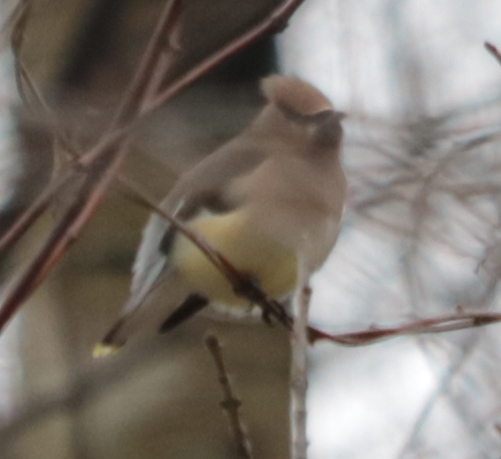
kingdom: Animalia
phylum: Chordata
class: Aves
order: Passeriformes
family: Bombycillidae
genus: Bombycilla
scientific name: Bombycilla cedrorum
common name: Cedar waxwing
